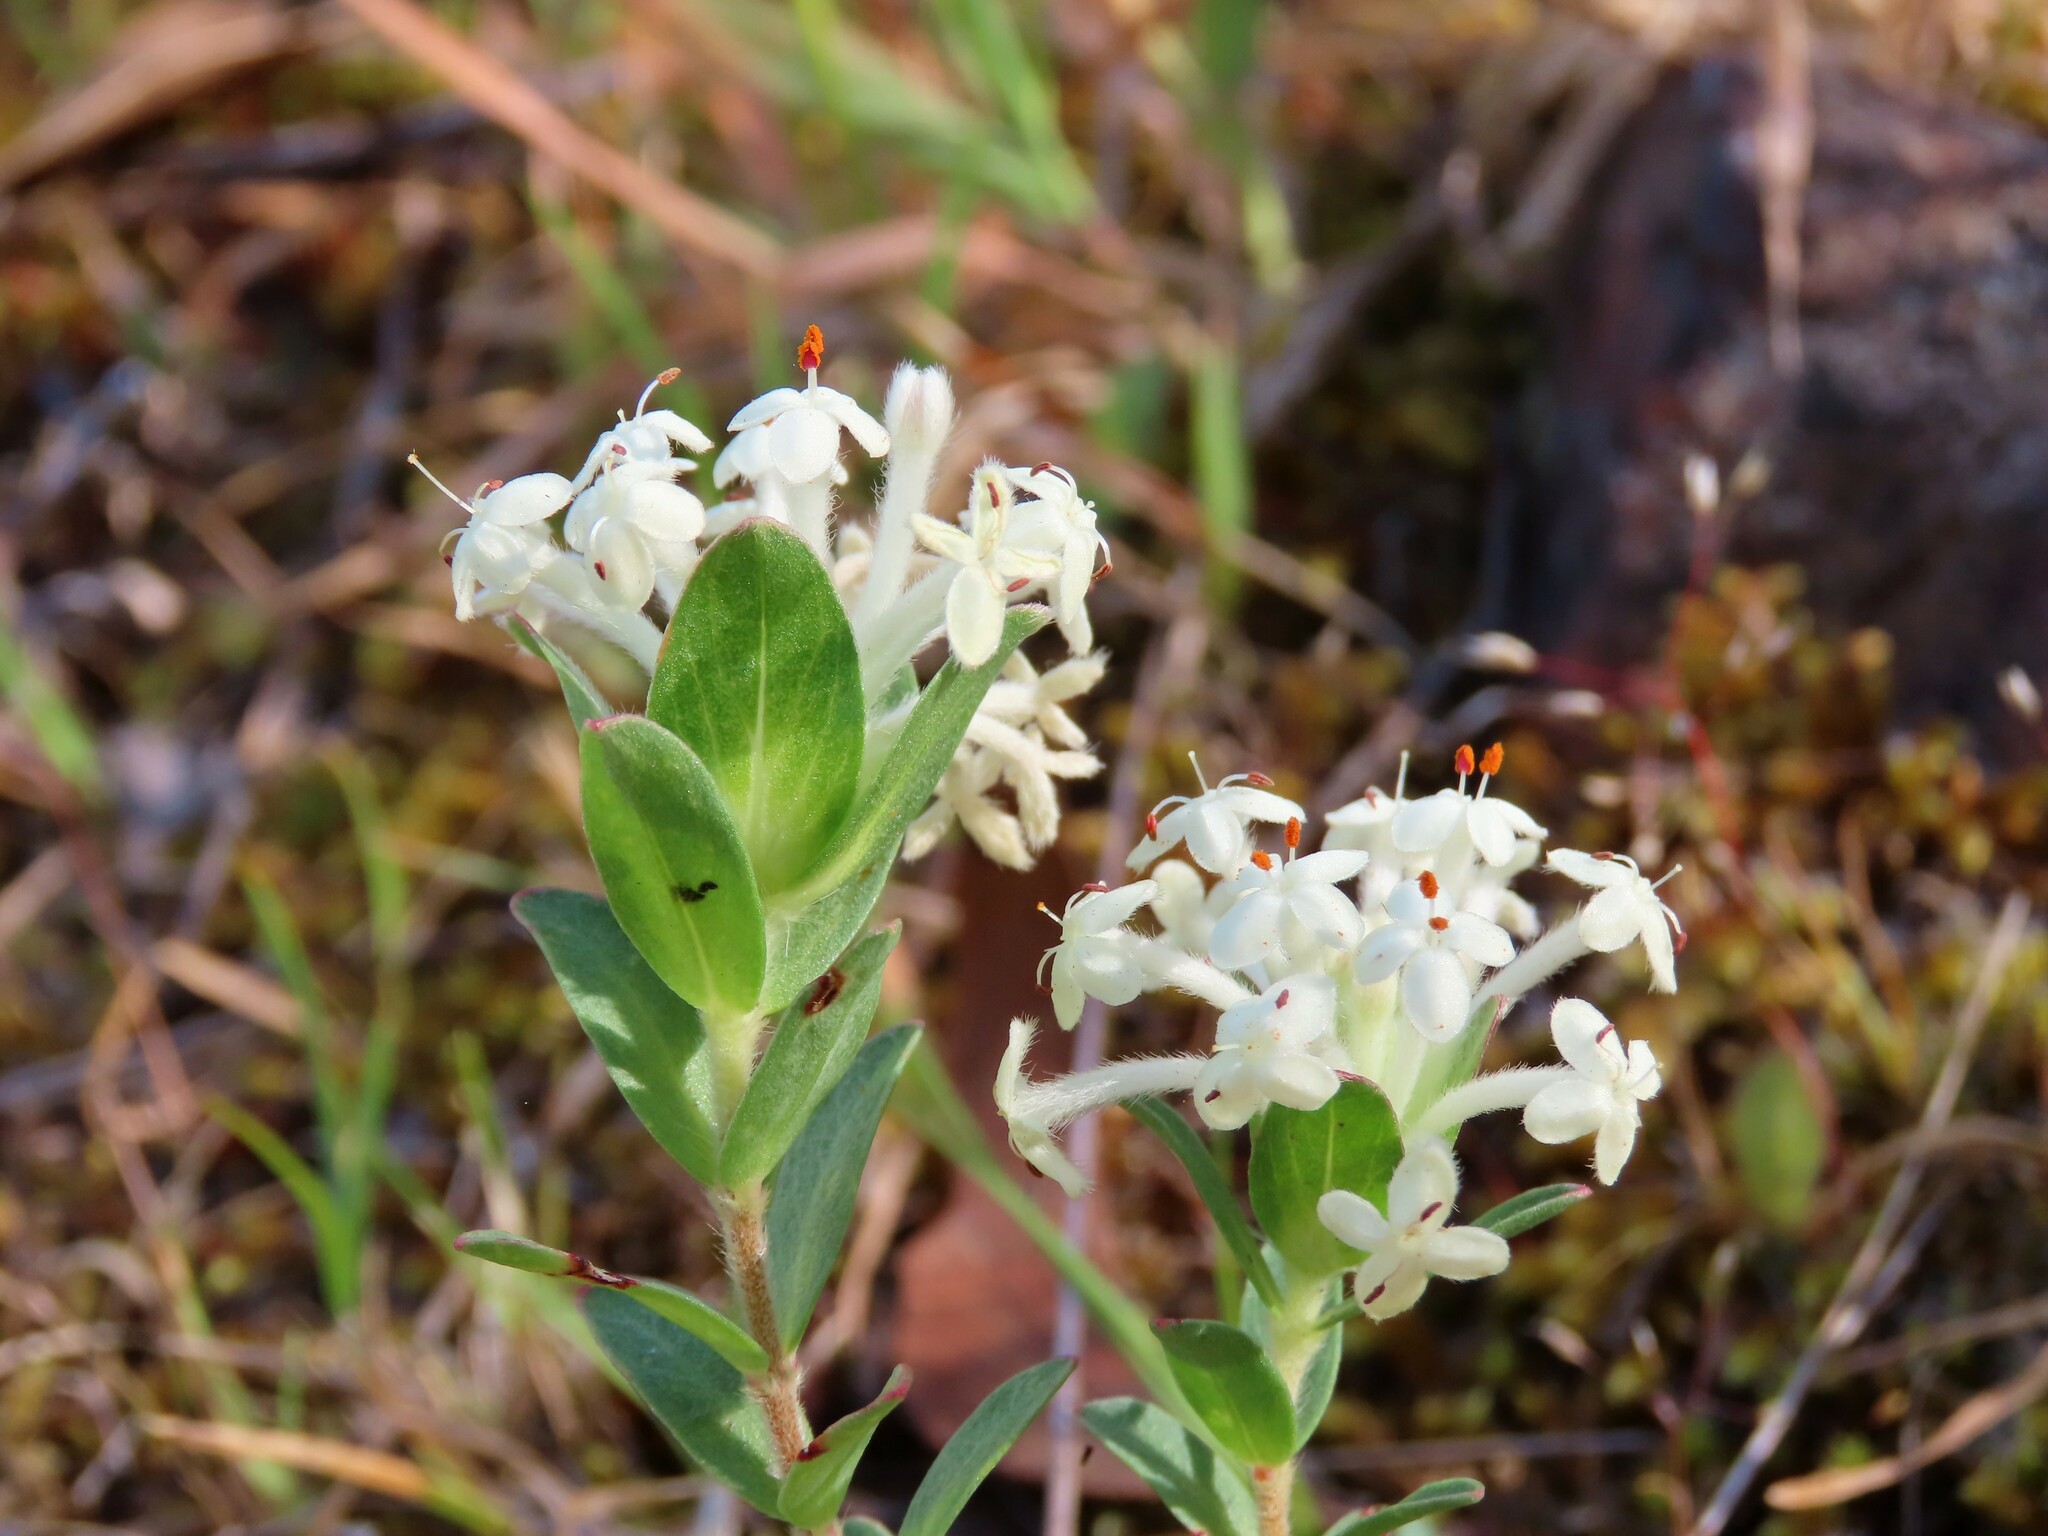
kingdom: Plantae
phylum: Tracheophyta
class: Magnoliopsida
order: Malvales
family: Thymelaeaceae
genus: Pimelea
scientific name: Pimelea humilis
